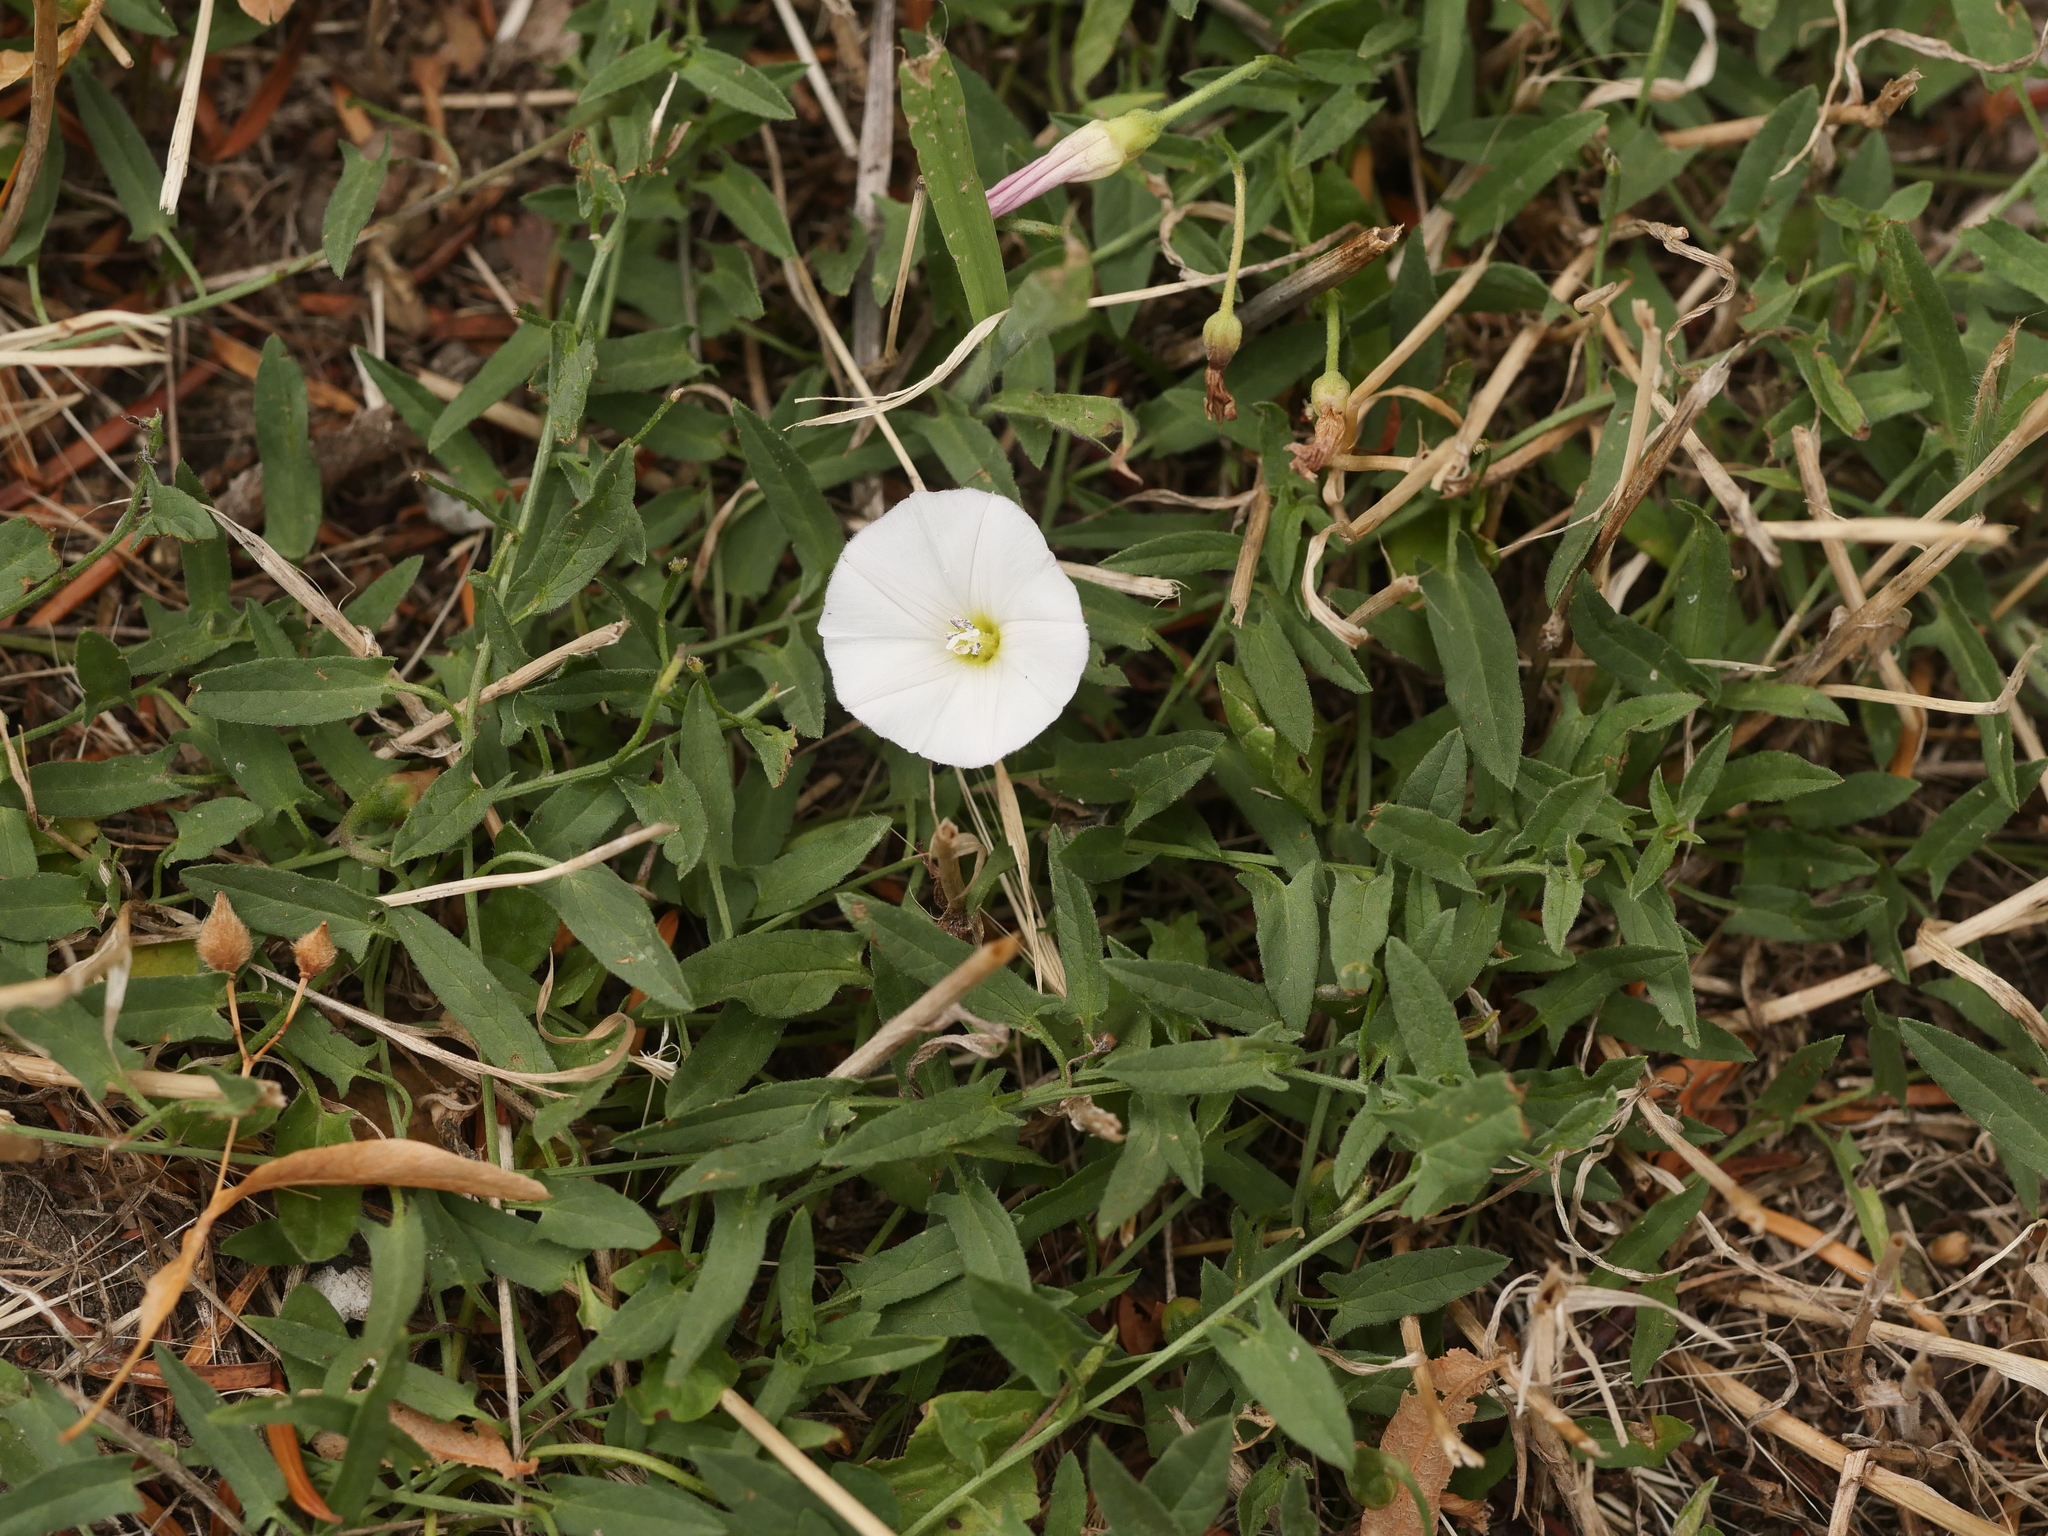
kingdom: Plantae
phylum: Tracheophyta
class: Magnoliopsida
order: Solanales
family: Convolvulaceae
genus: Convolvulus
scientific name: Convolvulus arvensis
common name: Field bindweed
